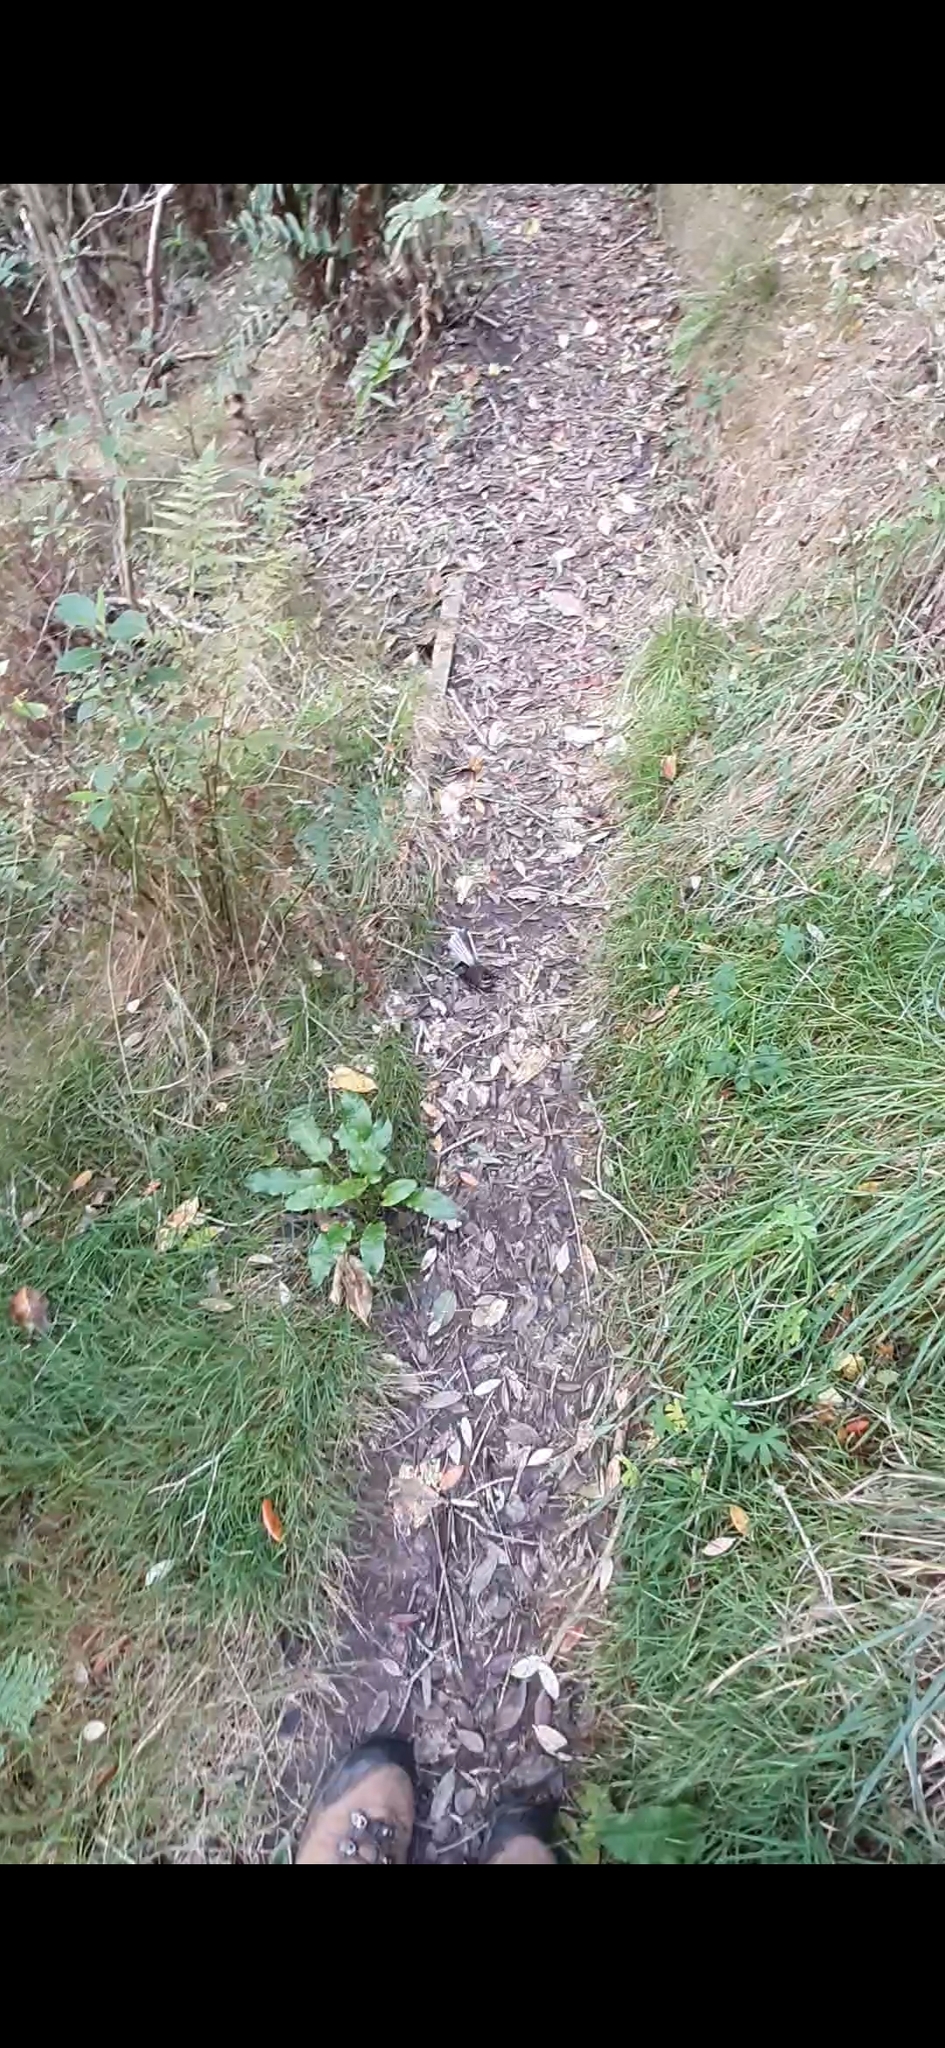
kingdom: Animalia
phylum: Chordata
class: Aves
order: Passeriformes
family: Rhipiduridae
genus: Rhipidura
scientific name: Rhipidura fuliginosa
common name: New zealand fantail
